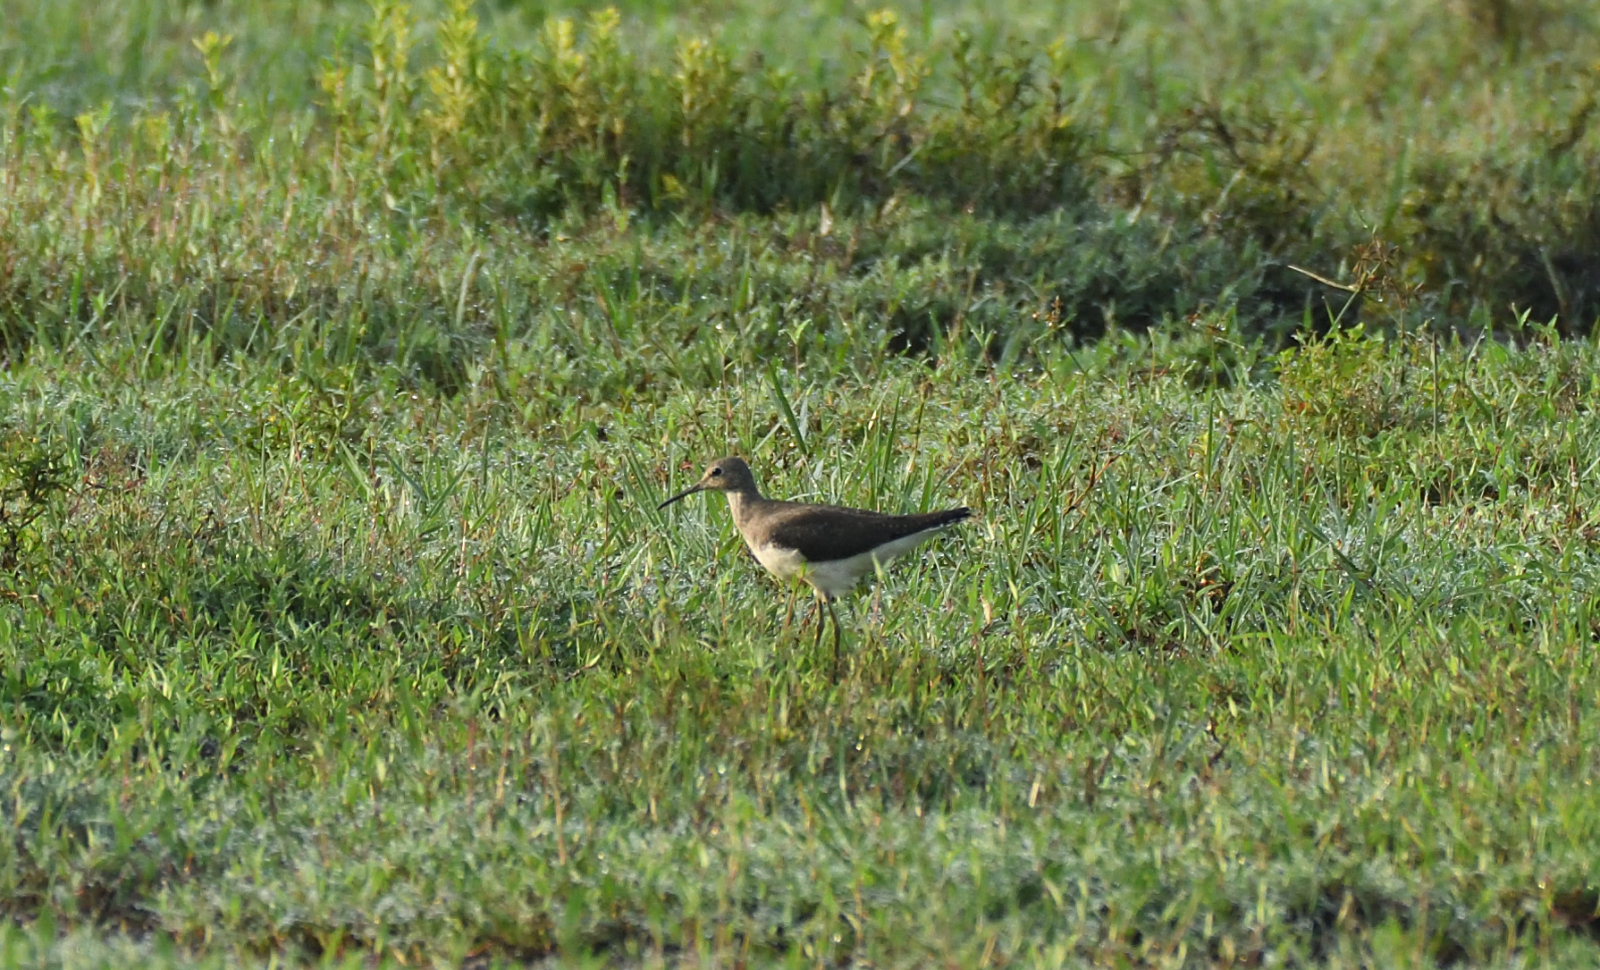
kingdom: Animalia
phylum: Chordata
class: Aves
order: Charadriiformes
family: Scolopacidae
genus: Tringa
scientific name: Tringa ochropus
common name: Green sandpiper
